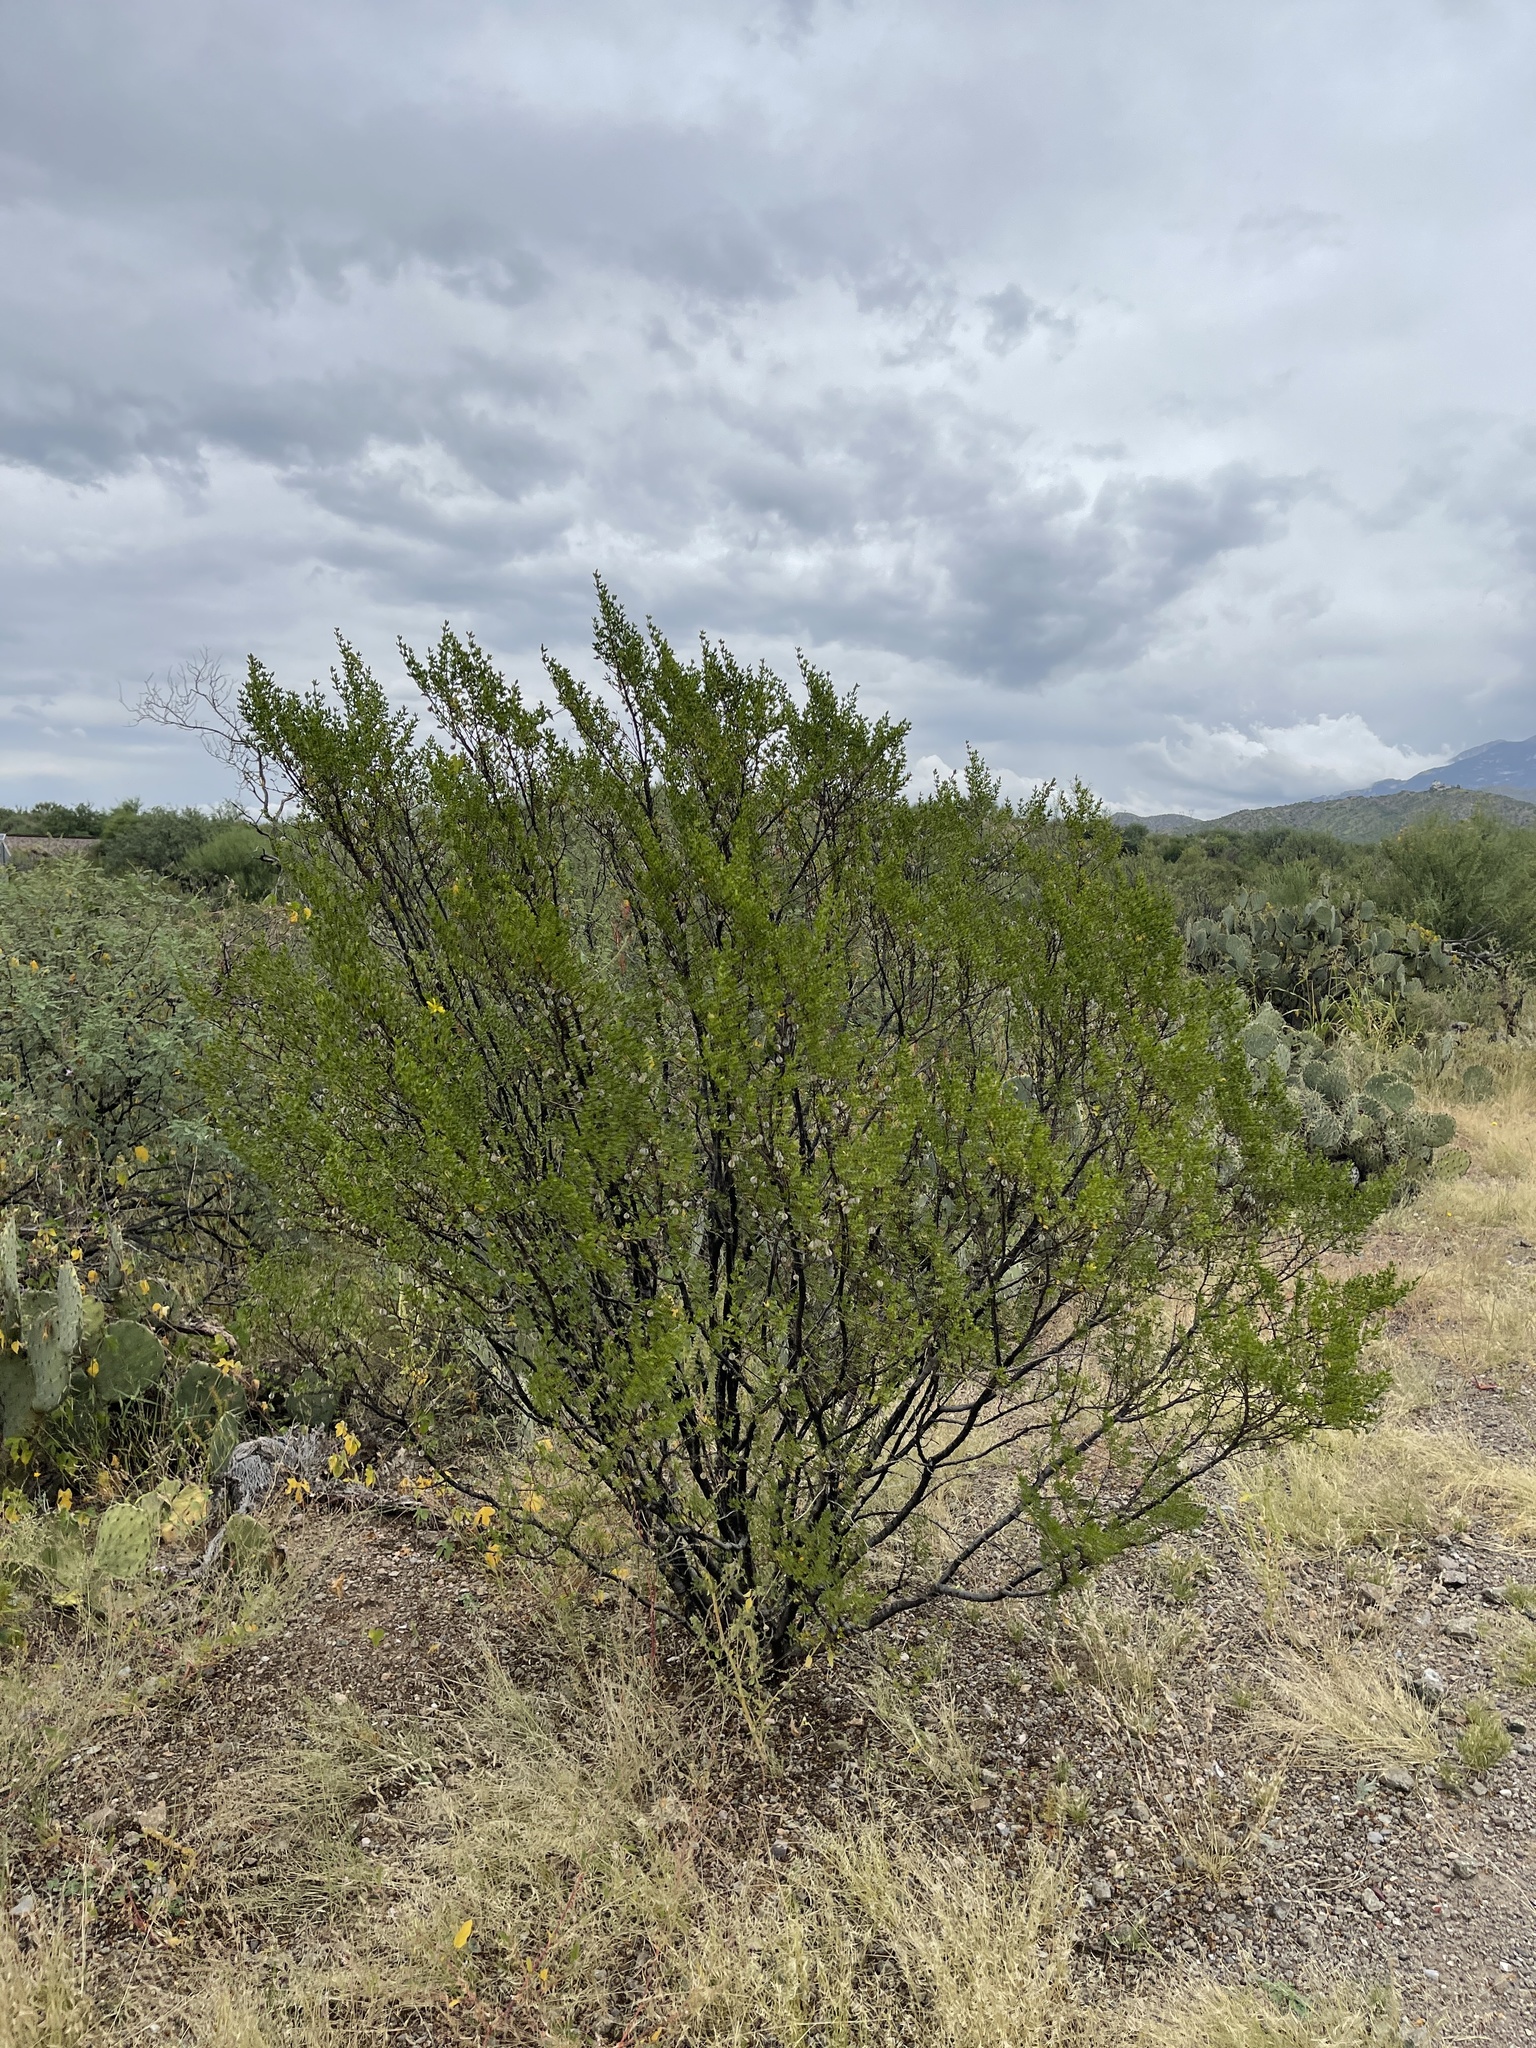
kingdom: Plantae
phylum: Tracheophyta
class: Magnoliopsida
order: Zygophyllales
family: Zygophyllaceae
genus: Larrea
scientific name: Larrea tridentata
